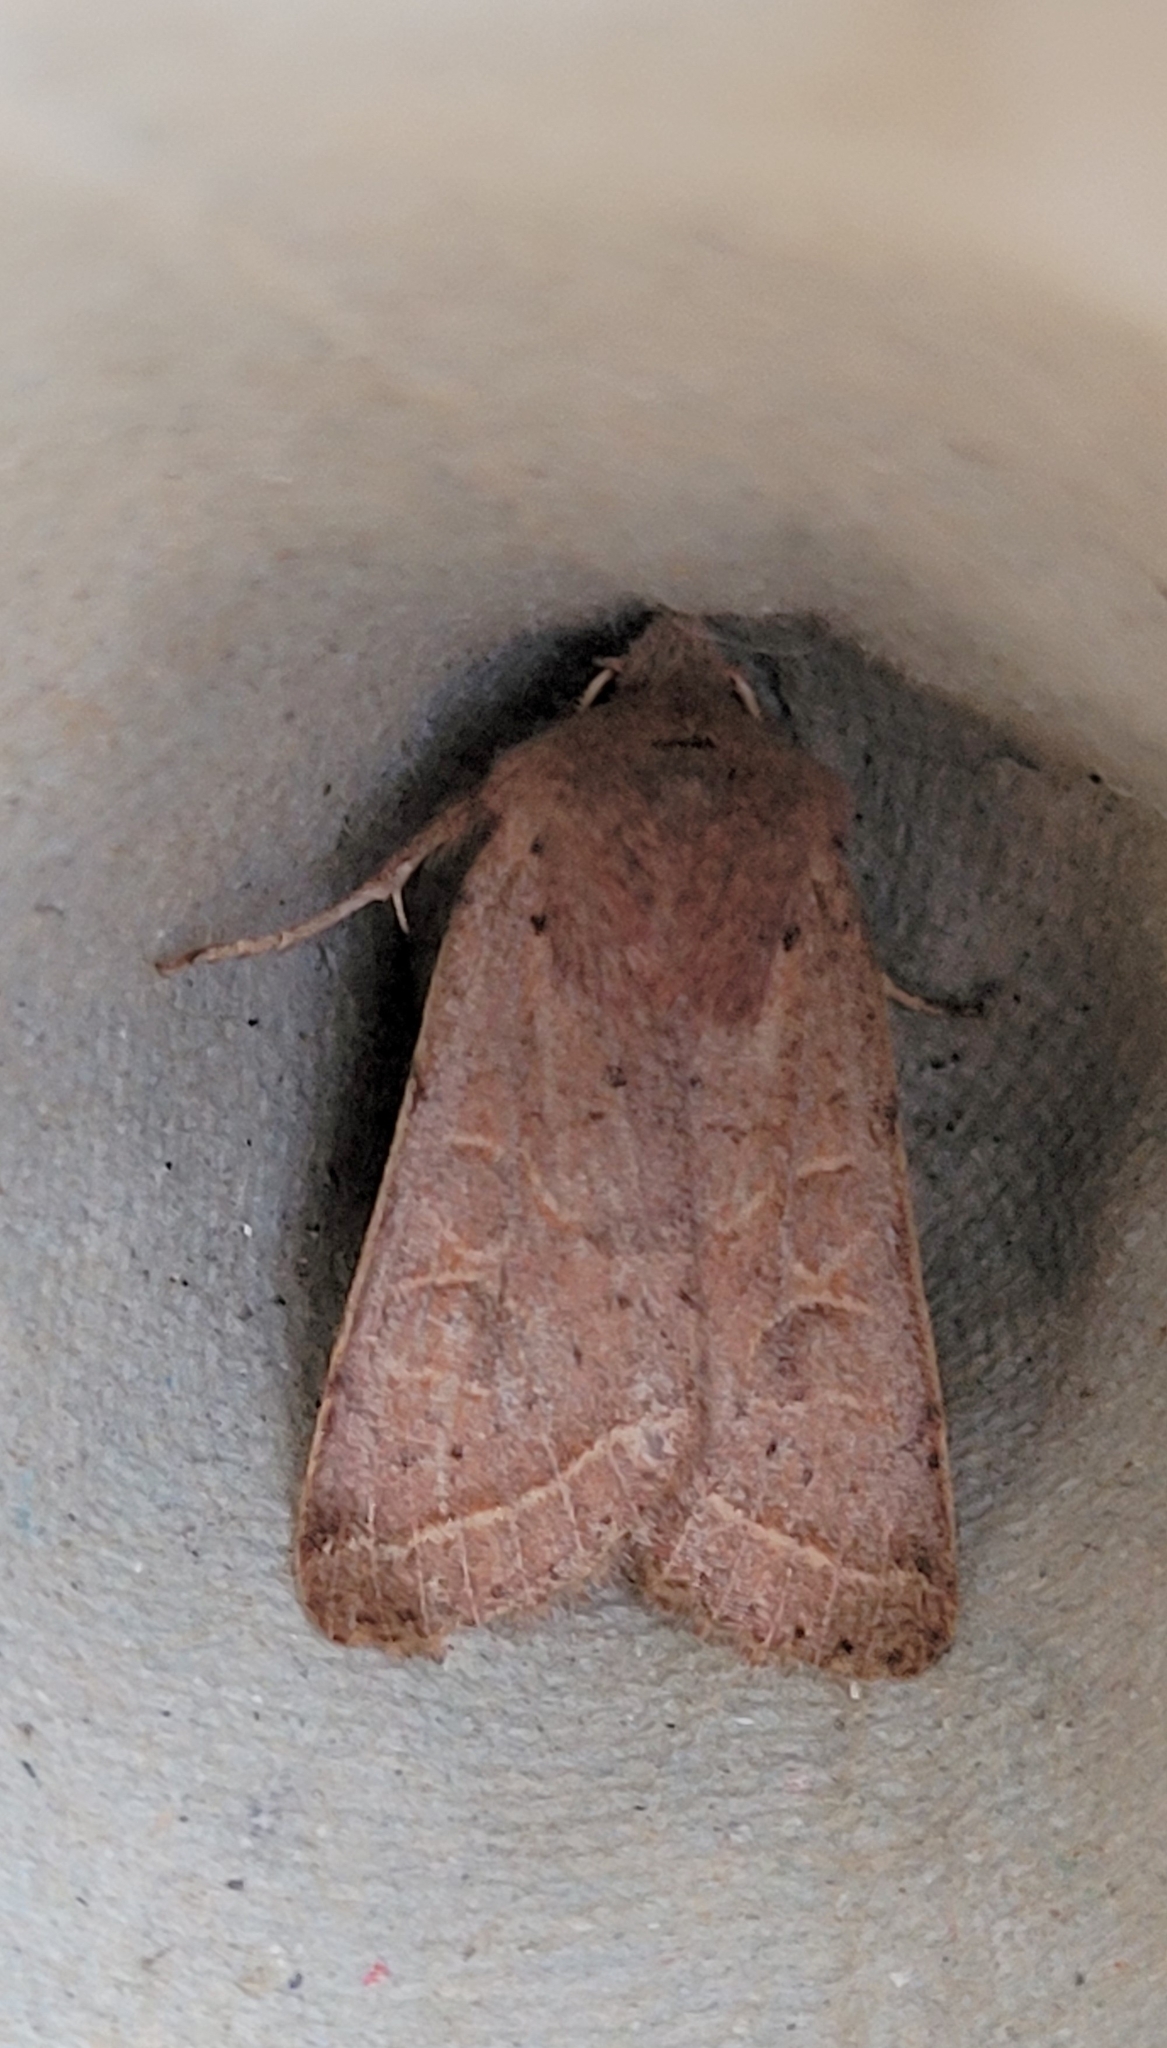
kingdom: Animalia
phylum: Arthropoda
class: Insecta
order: Lepidoptera
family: Noctuidae
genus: Orthosia
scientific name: Orthosia cerasi
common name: Common quaker
